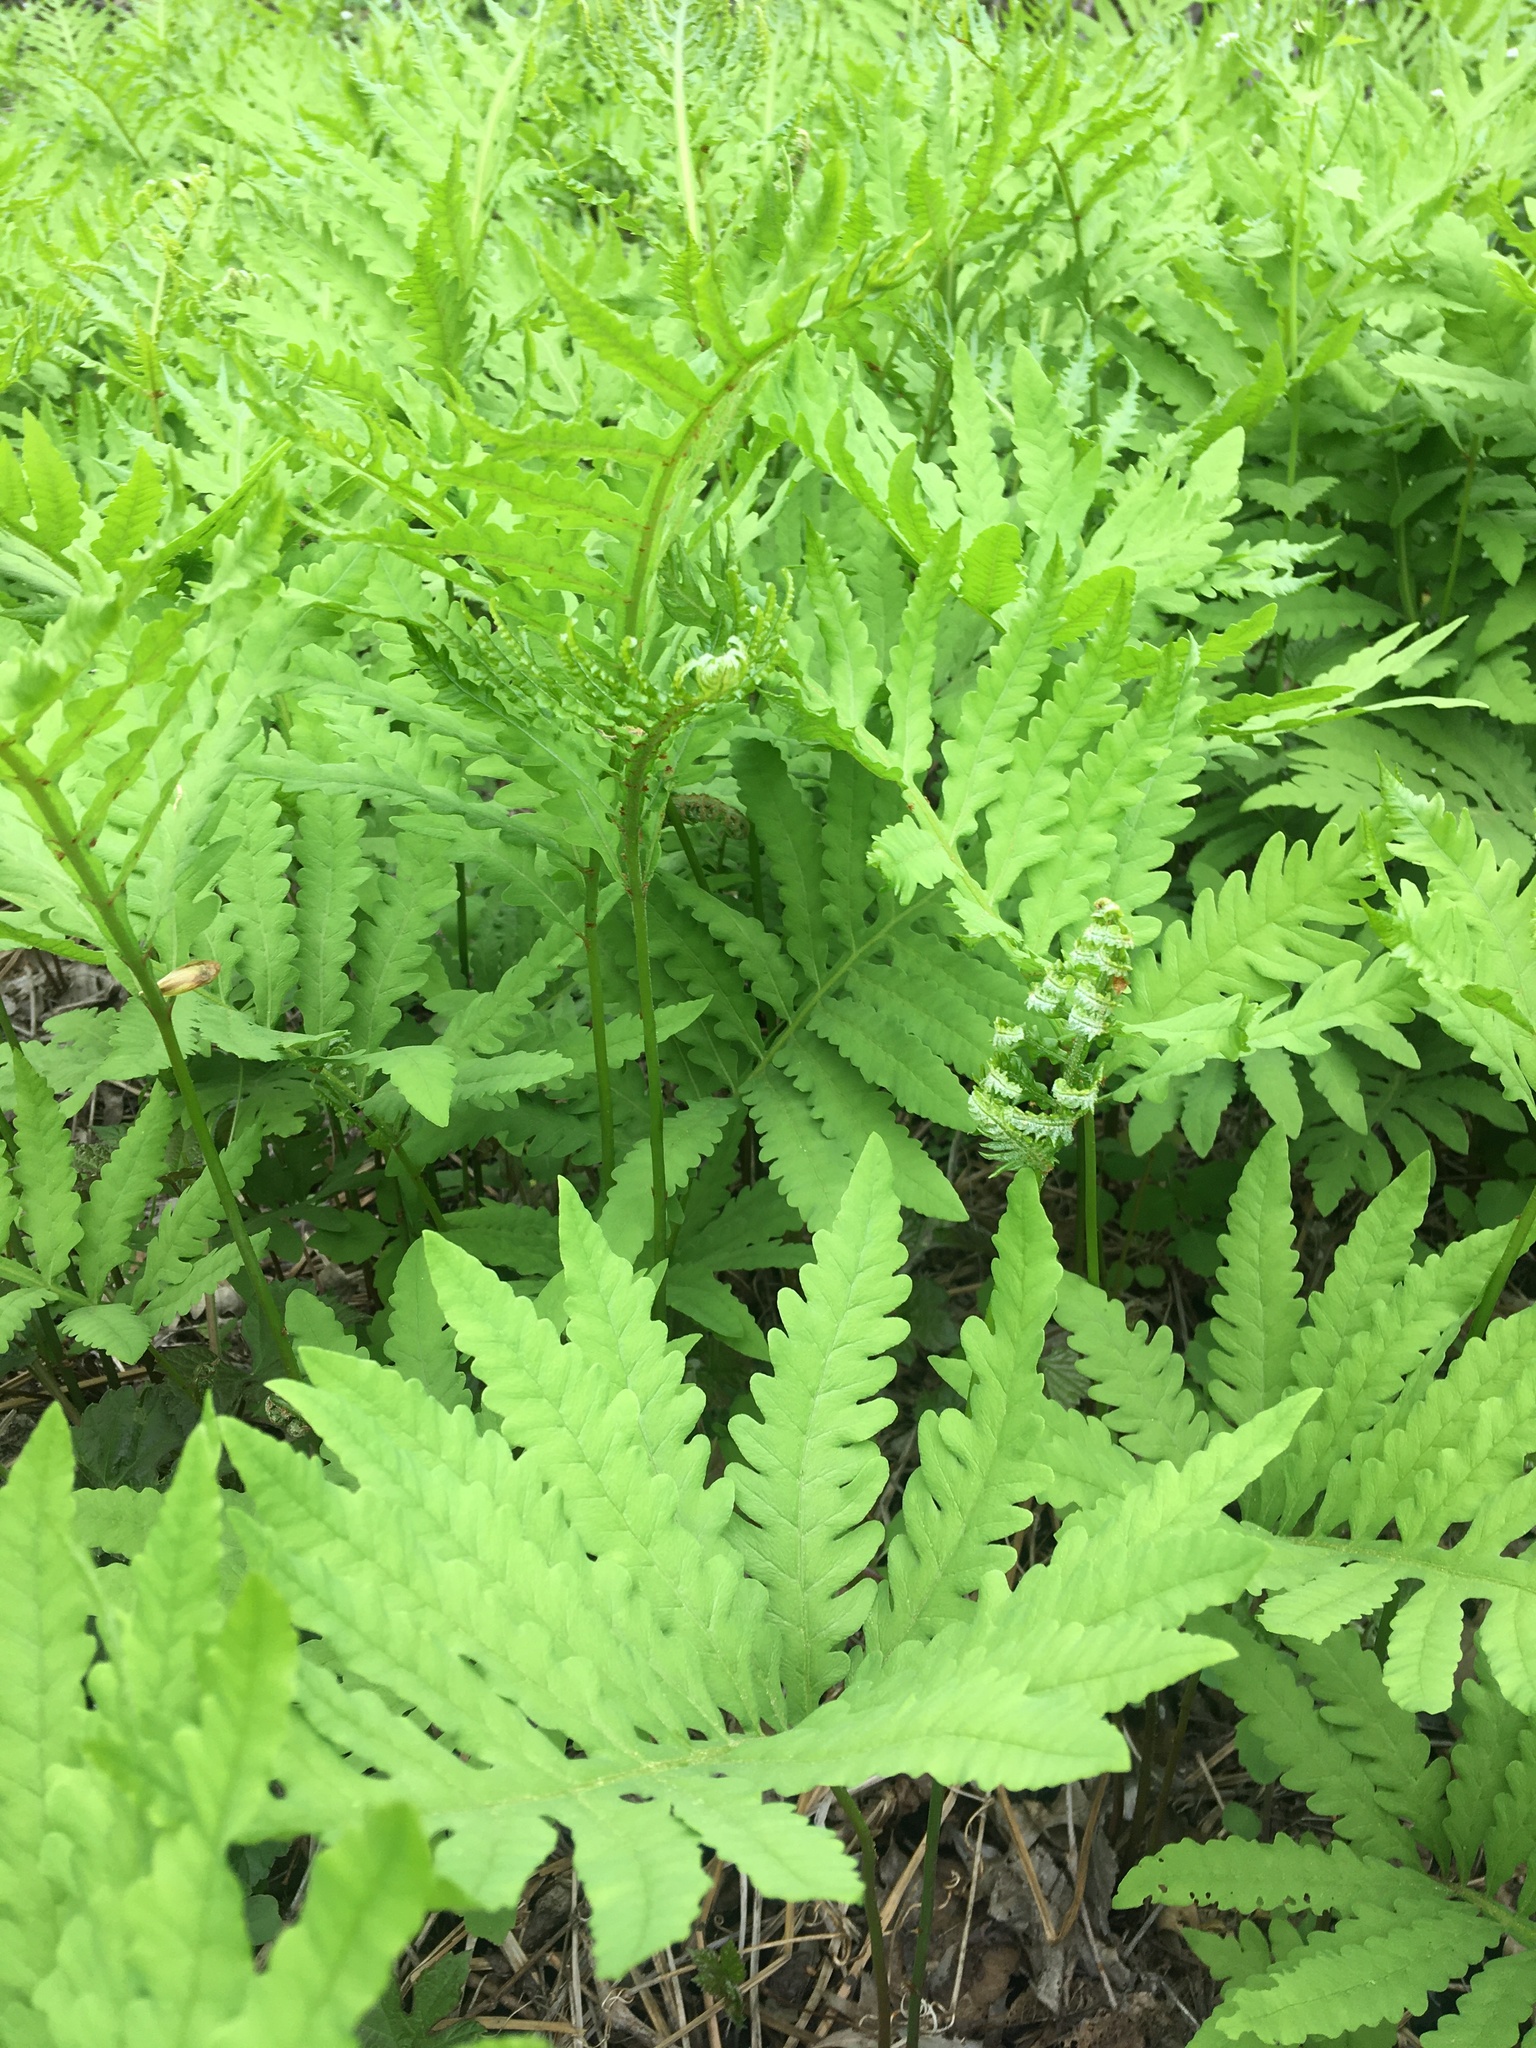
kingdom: Plantae
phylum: Tracheophyta
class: Polypodiopsida
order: Polypodiales
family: Onocleaceae
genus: Onoclea
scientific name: Onoclea sensibilis
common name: Sensitive fern
